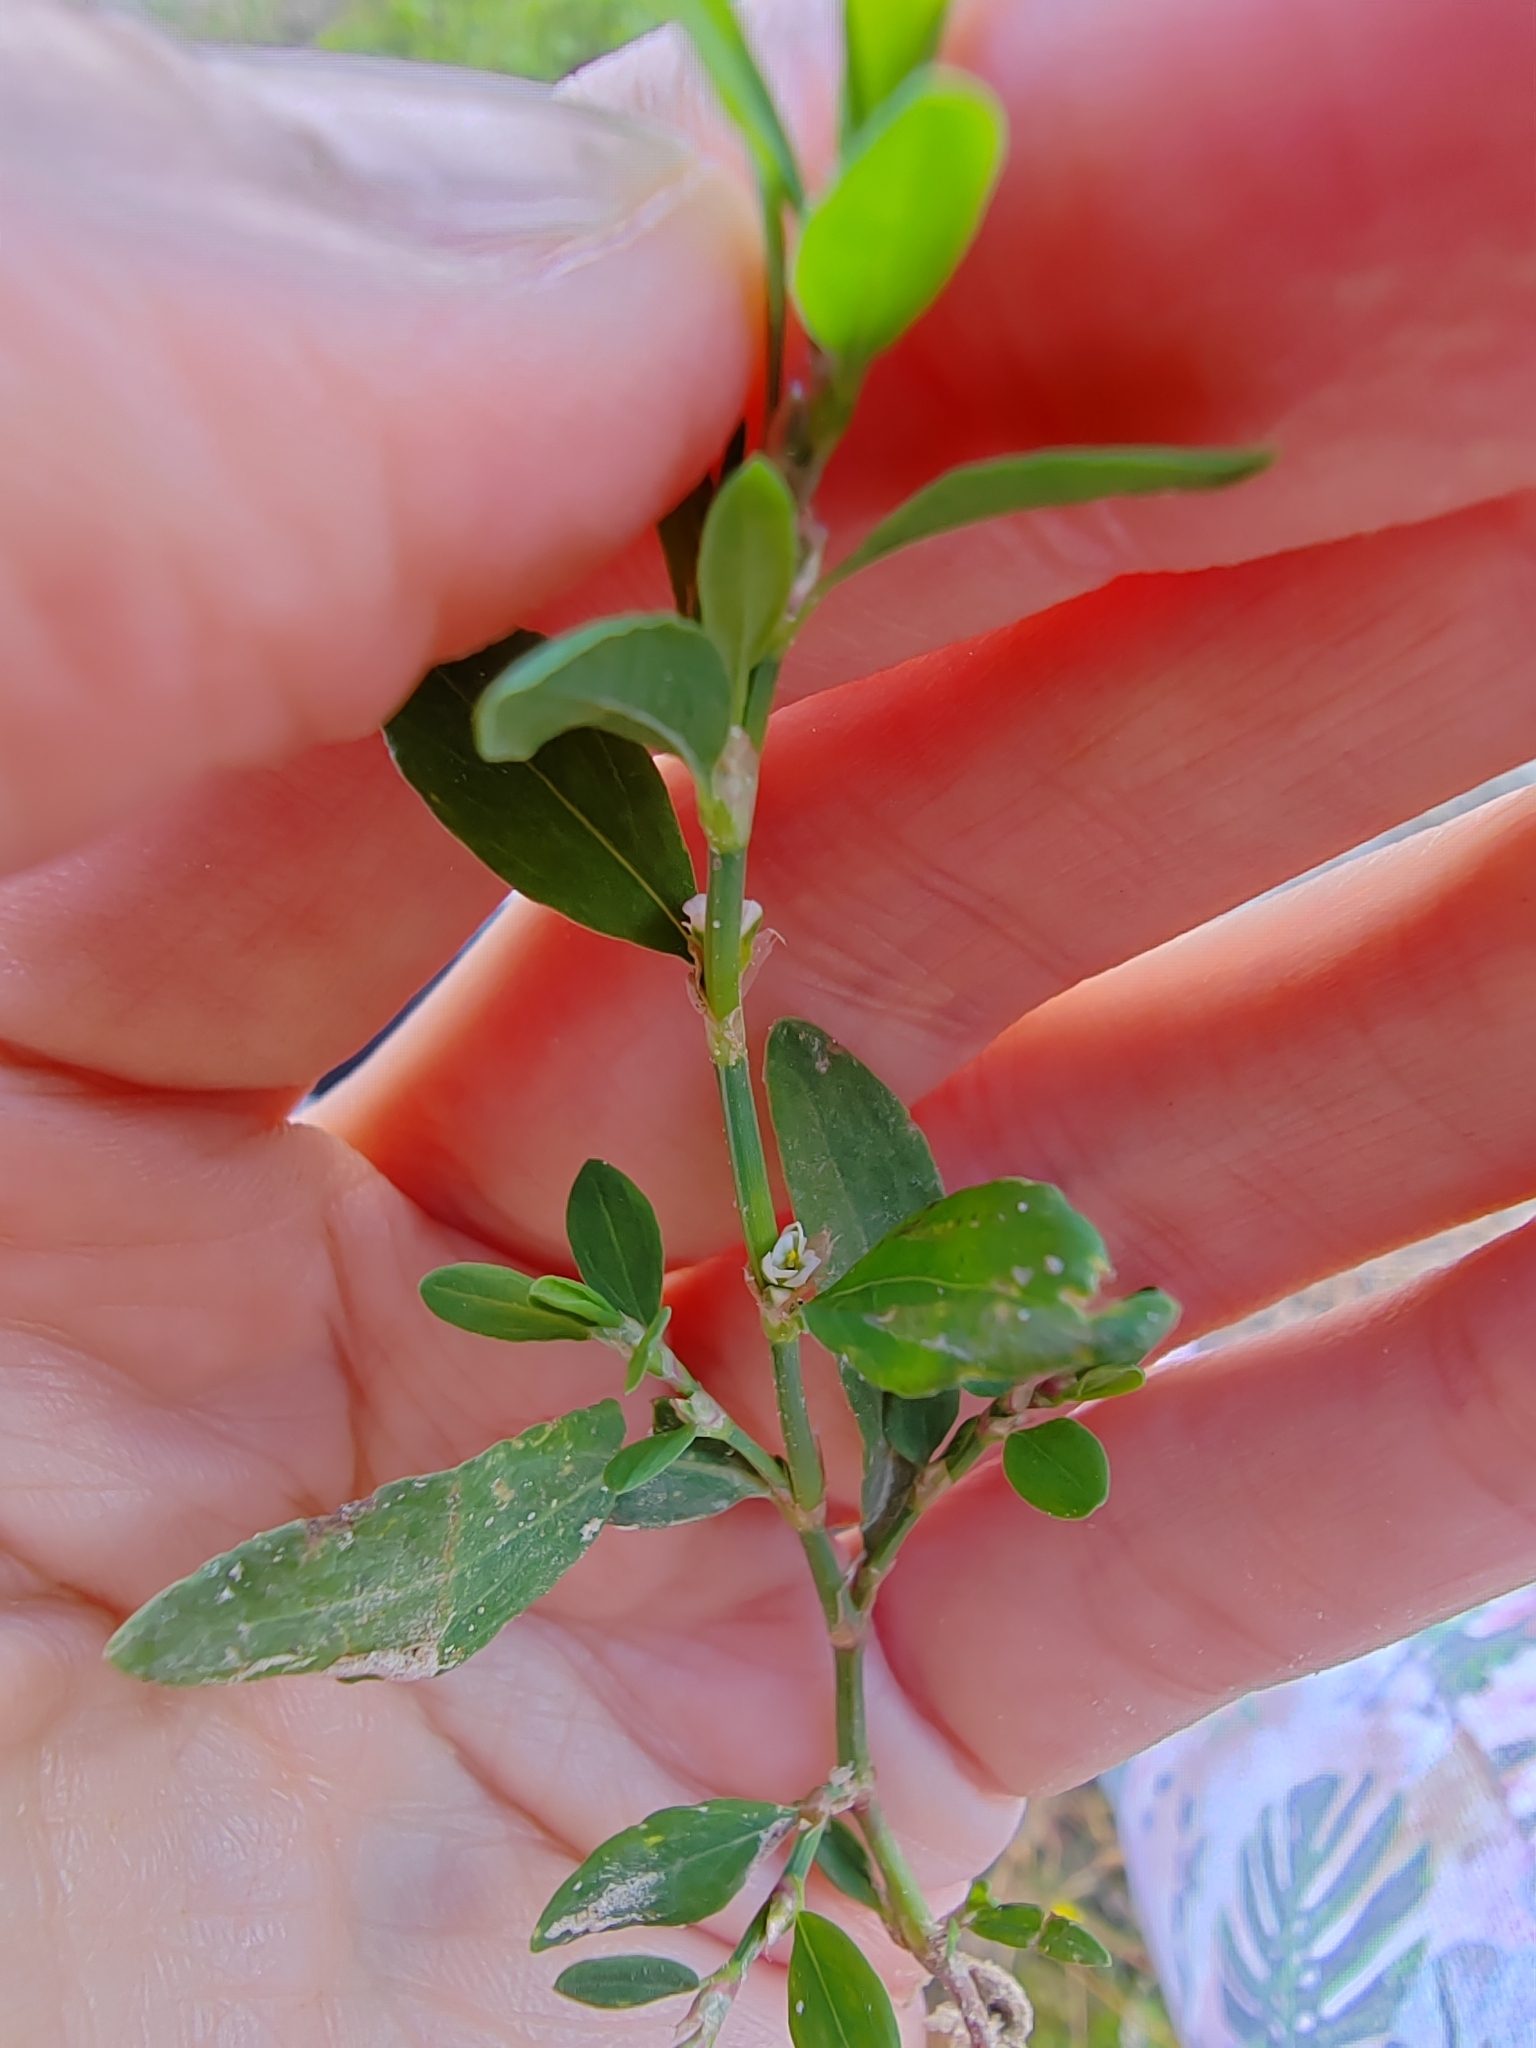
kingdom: Plantae
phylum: Tracheophyta
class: Magnoliopsida
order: Caryophyllales
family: Polygonaceae
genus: Polygonum
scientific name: Polygonum
